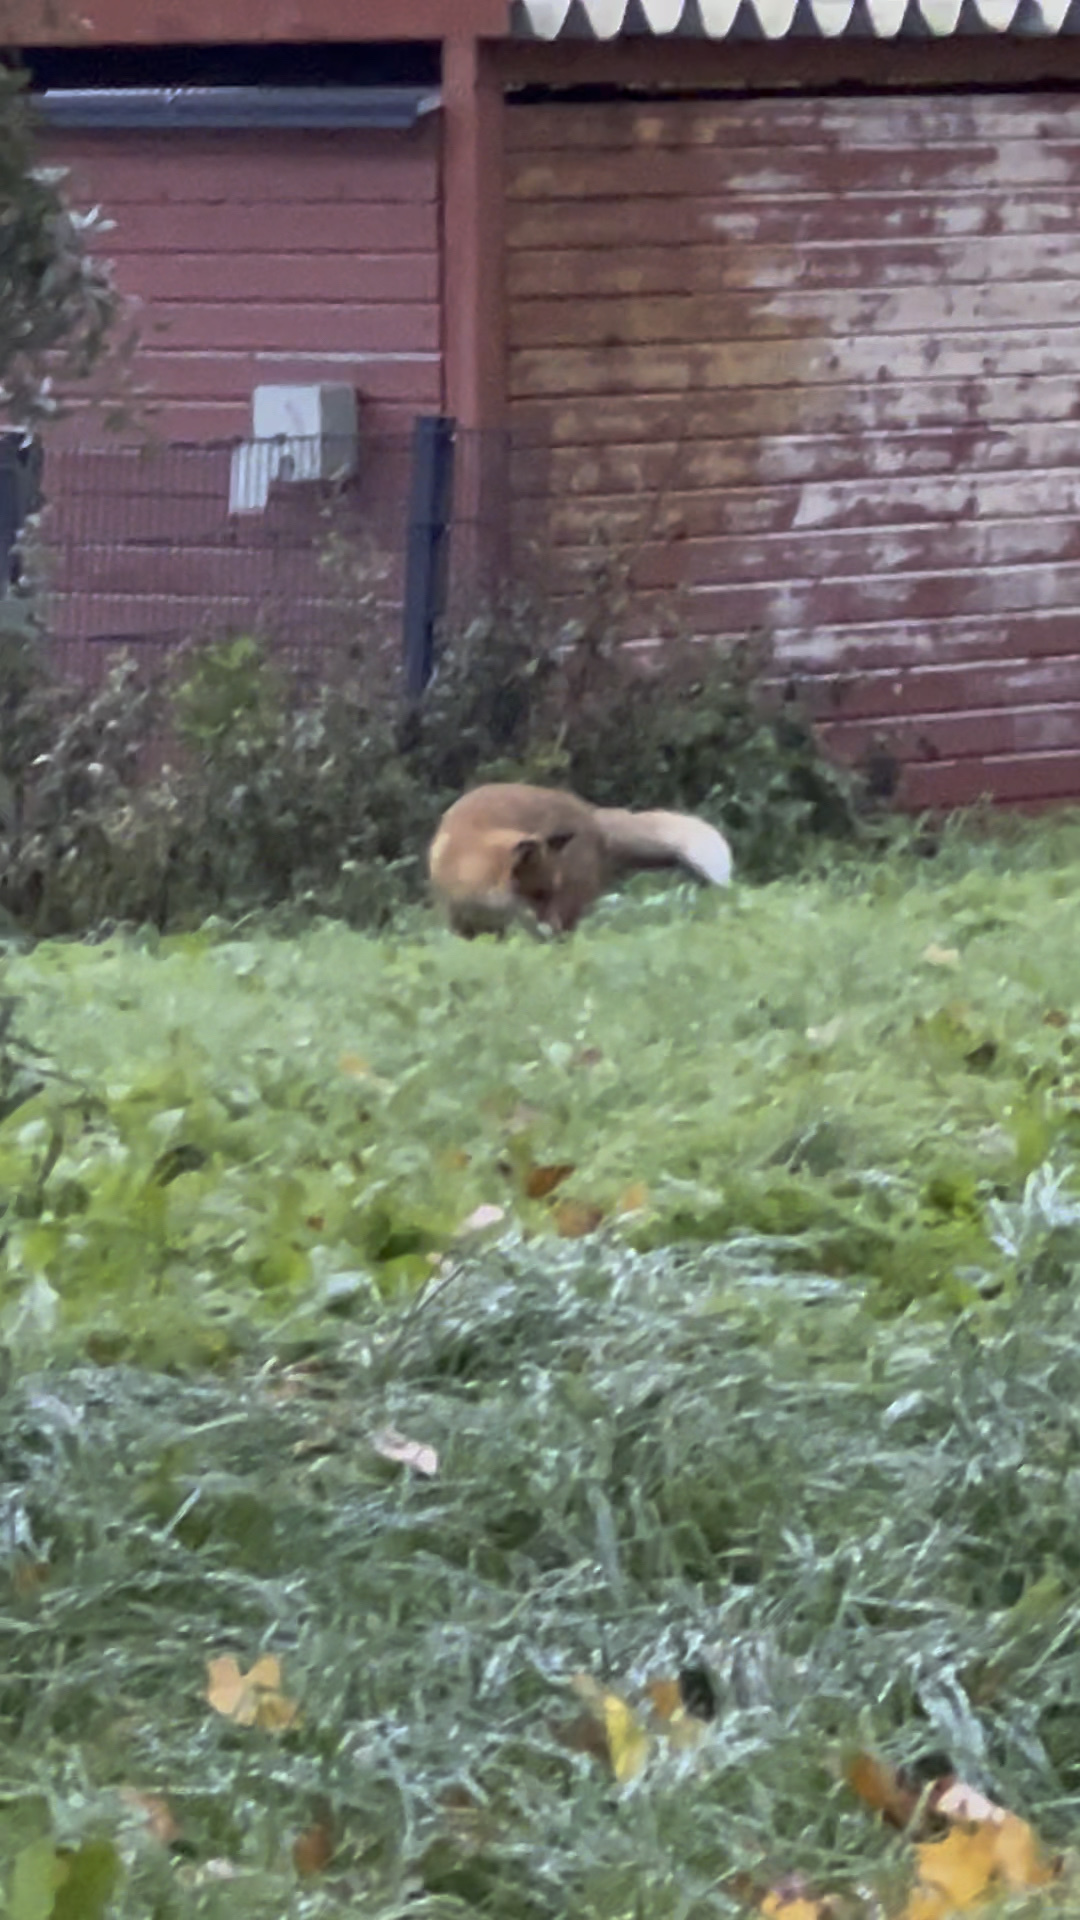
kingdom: Animalia
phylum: Chordata
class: Mammalia
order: Carnivora
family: Canidae
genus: Vulpes
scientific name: Vulpes vulpes
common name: Red fox
